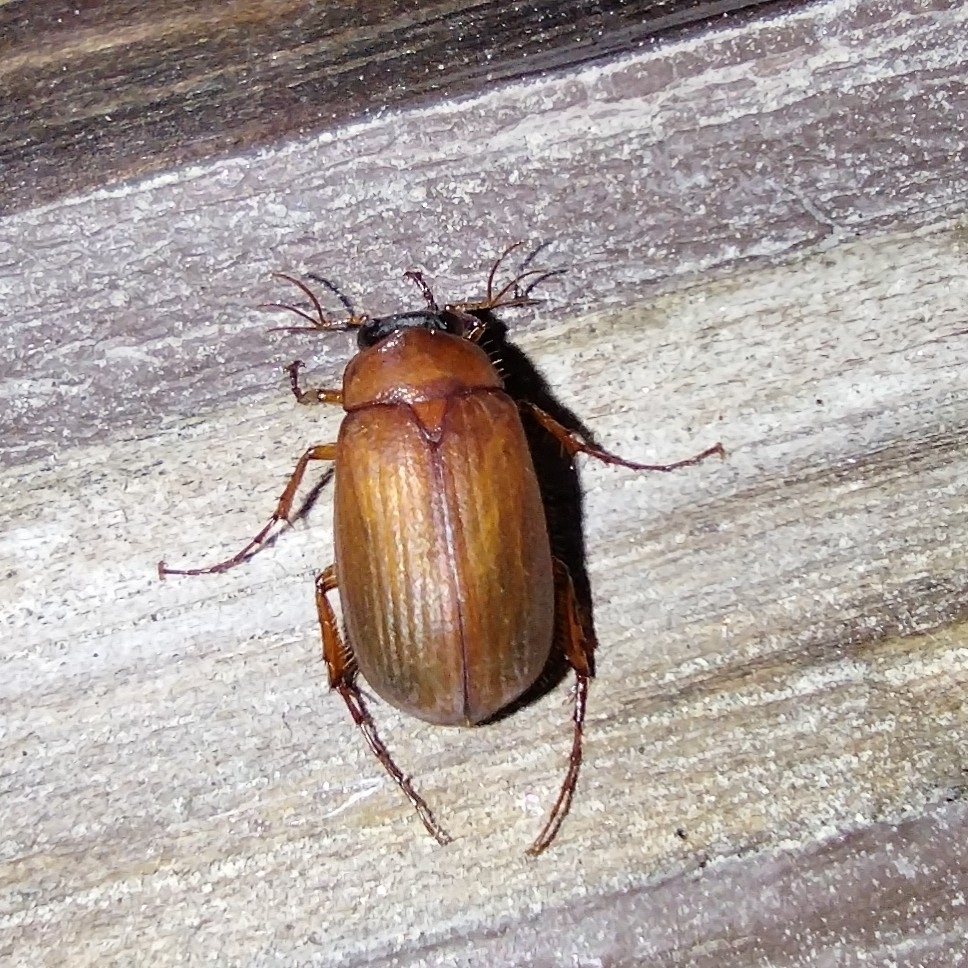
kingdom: Animalia
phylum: Arthropoda
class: Insecta
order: Coleoptera
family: Scarabaeidae
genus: Serica
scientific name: Serica brunnea
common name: Brown chafer
